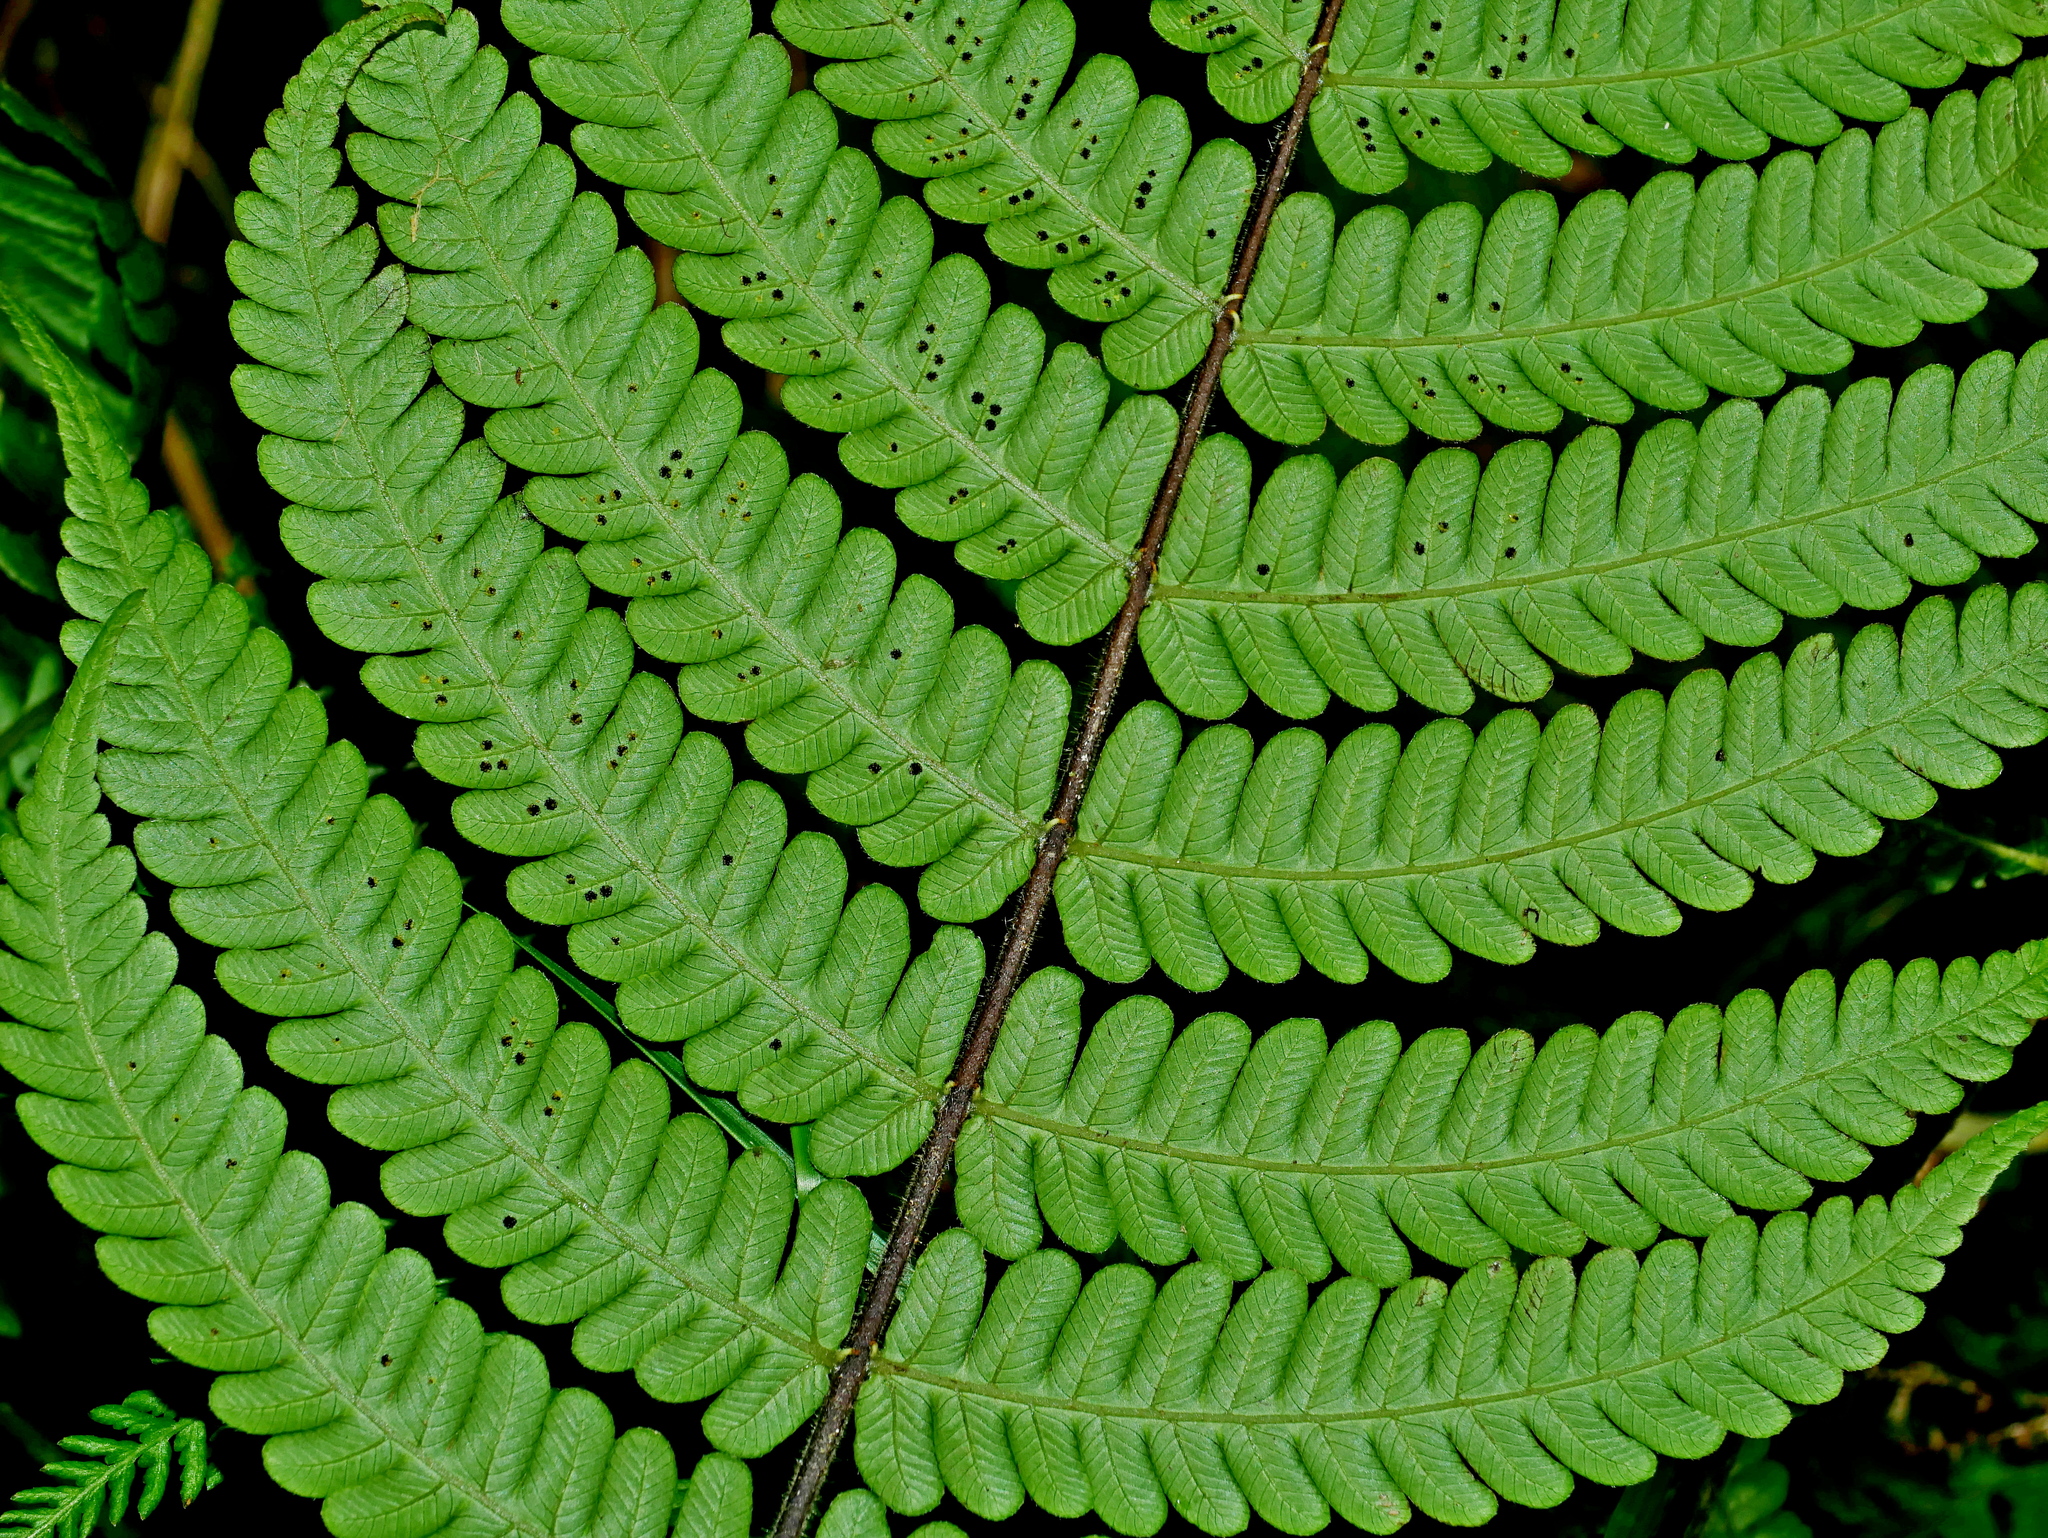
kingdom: Plantae
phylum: Tracheophyta
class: Polypodiopsida
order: Polypodiales
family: Thelypteridaceae
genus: Cyclogramma
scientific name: Cyclogramma auriculata
